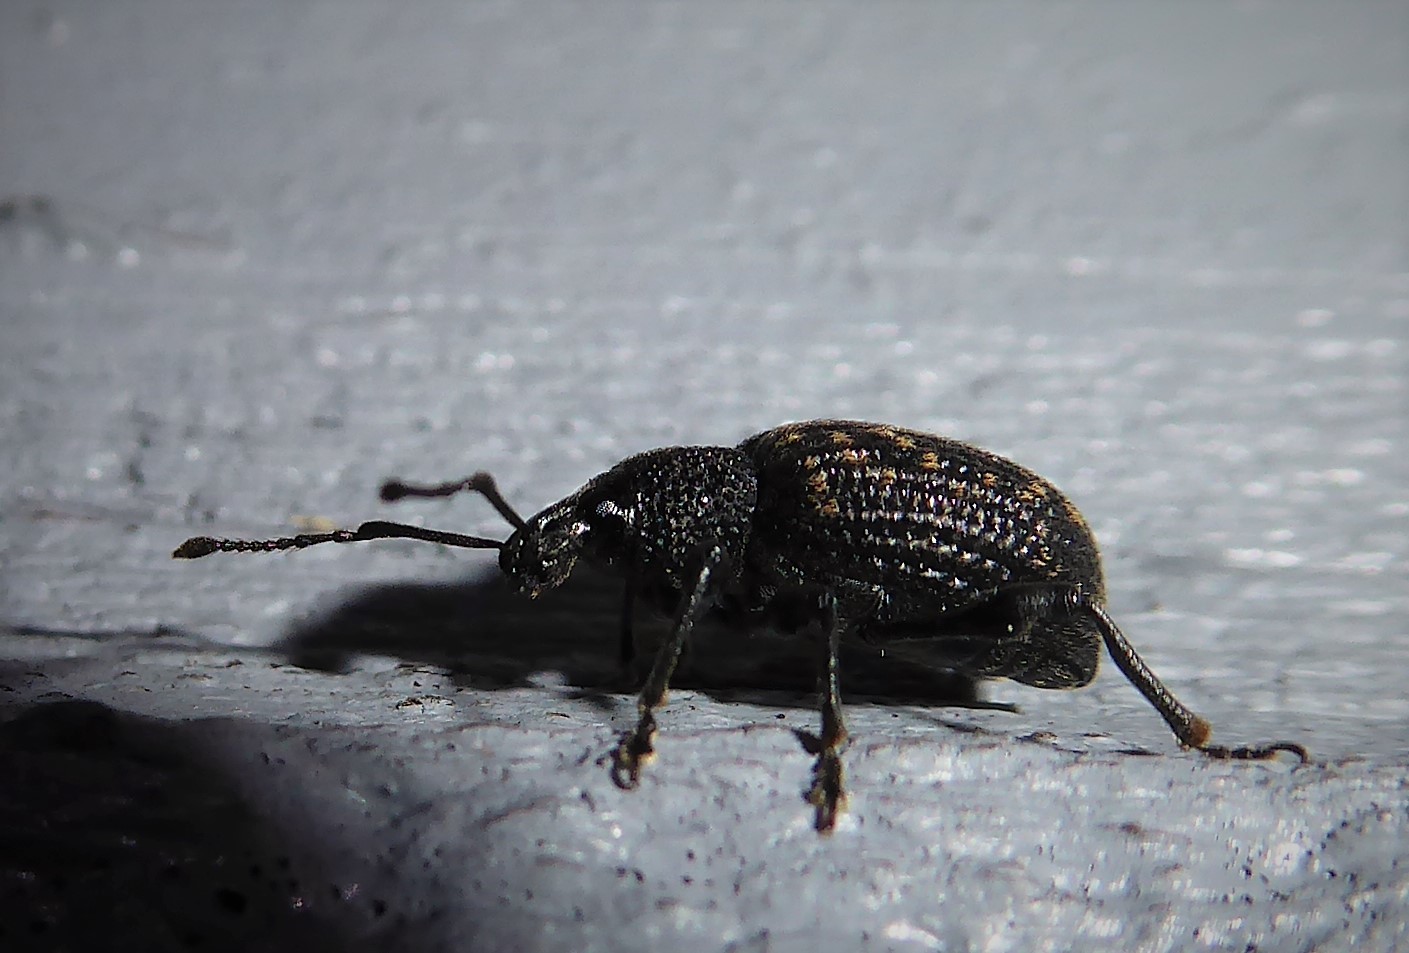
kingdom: Animalia
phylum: Arthropoda
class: Insecta
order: Coleoptera
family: Curculionidae
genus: Otiorhynchus
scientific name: Otiorhynchus sulcatus
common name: Black vine weevil
